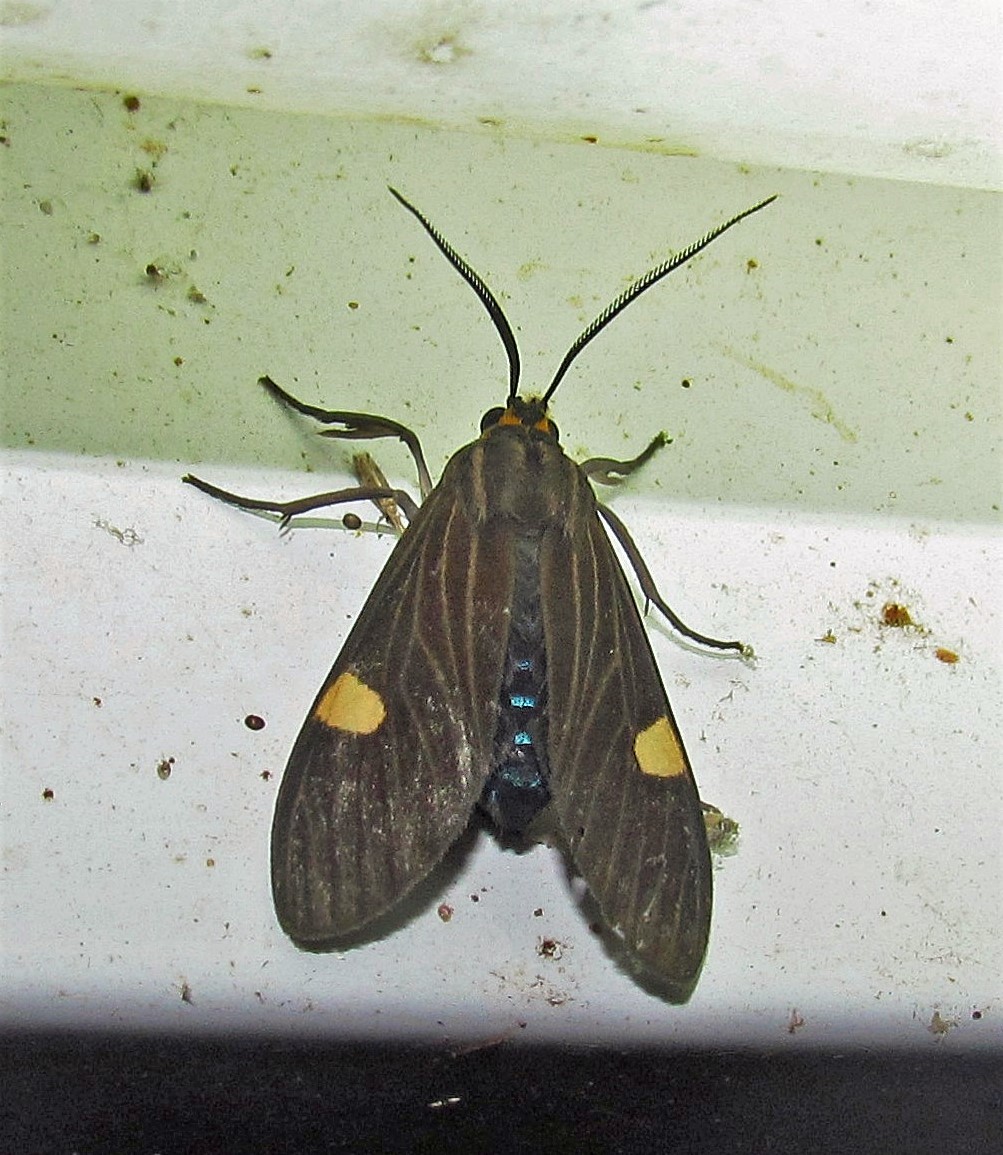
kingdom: Animalia
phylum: Arthropoda
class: Insecta
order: Lepidoptera
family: Erebidae
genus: Aclytia
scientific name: Aclytia heber
